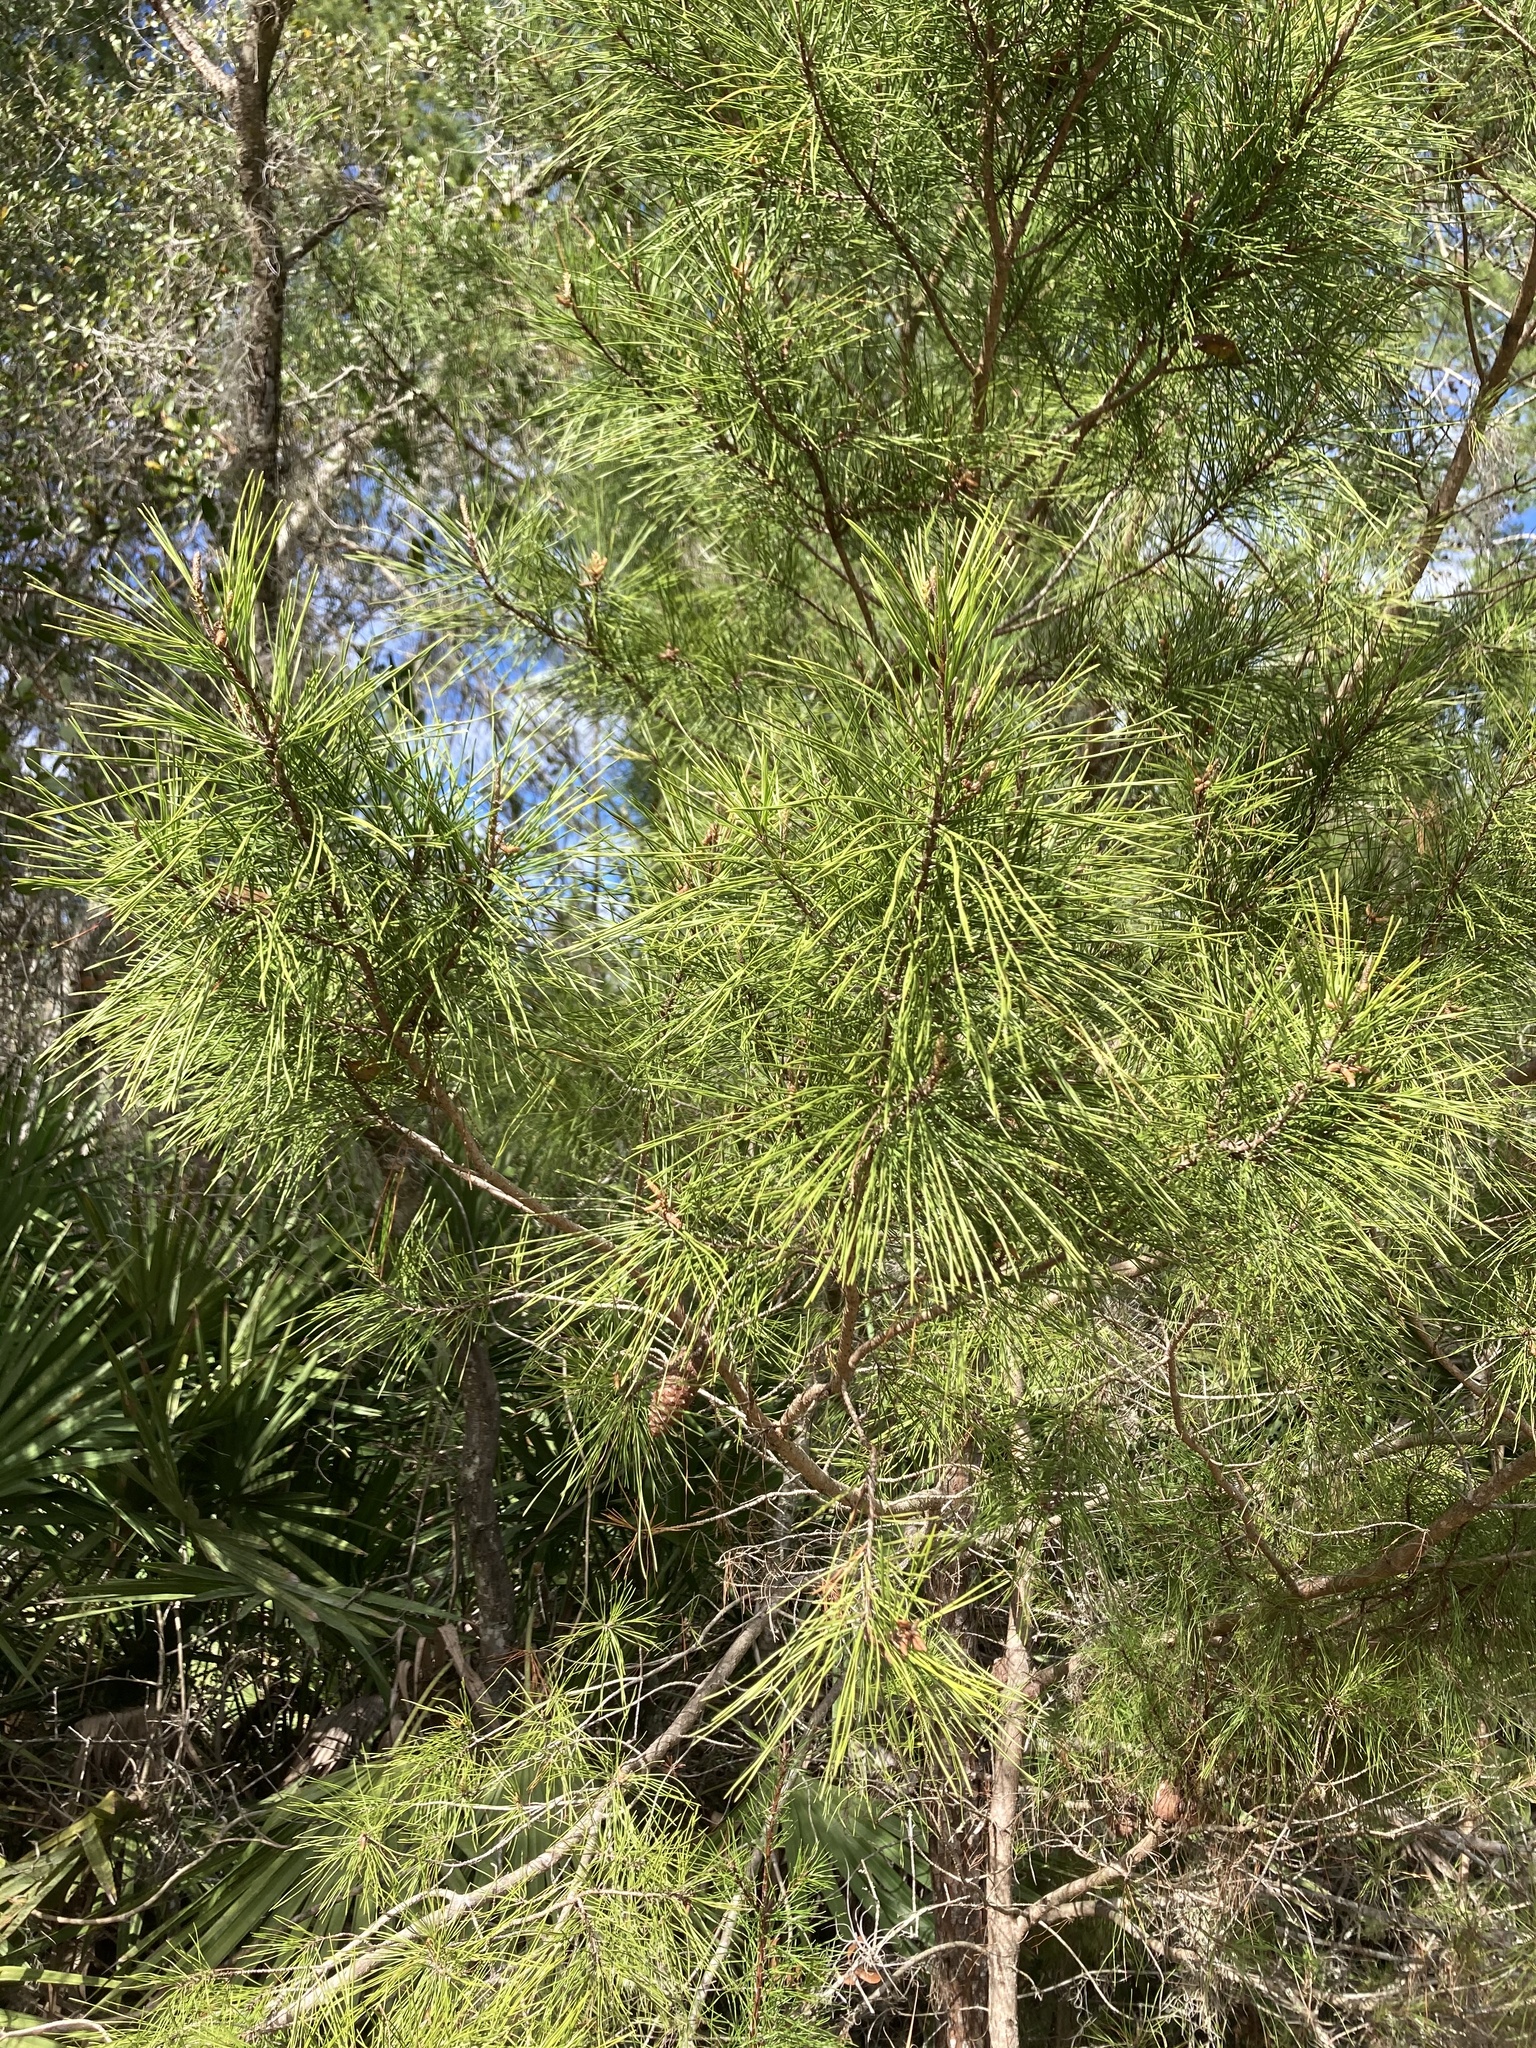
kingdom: Plantae
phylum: Tracheophyta
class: Pinopsida
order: Pinales
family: Pinaceae
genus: Pinus
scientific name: Pinus clausa
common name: Sand pine
